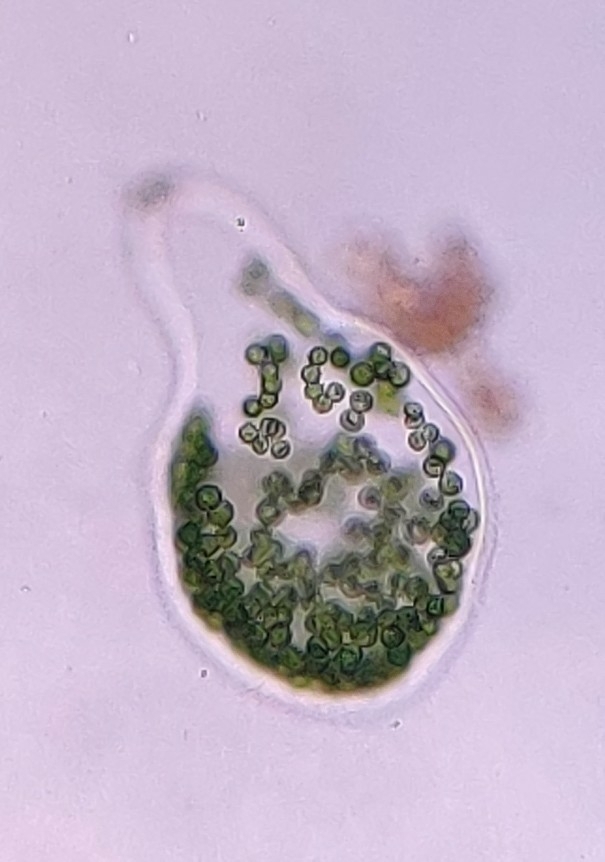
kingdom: Plantae
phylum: Chlorophyta
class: Chlorophyceae
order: Tetrasporales
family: Tetrasporaceae
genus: Apiocystis
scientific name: Apiocystis brauniana
